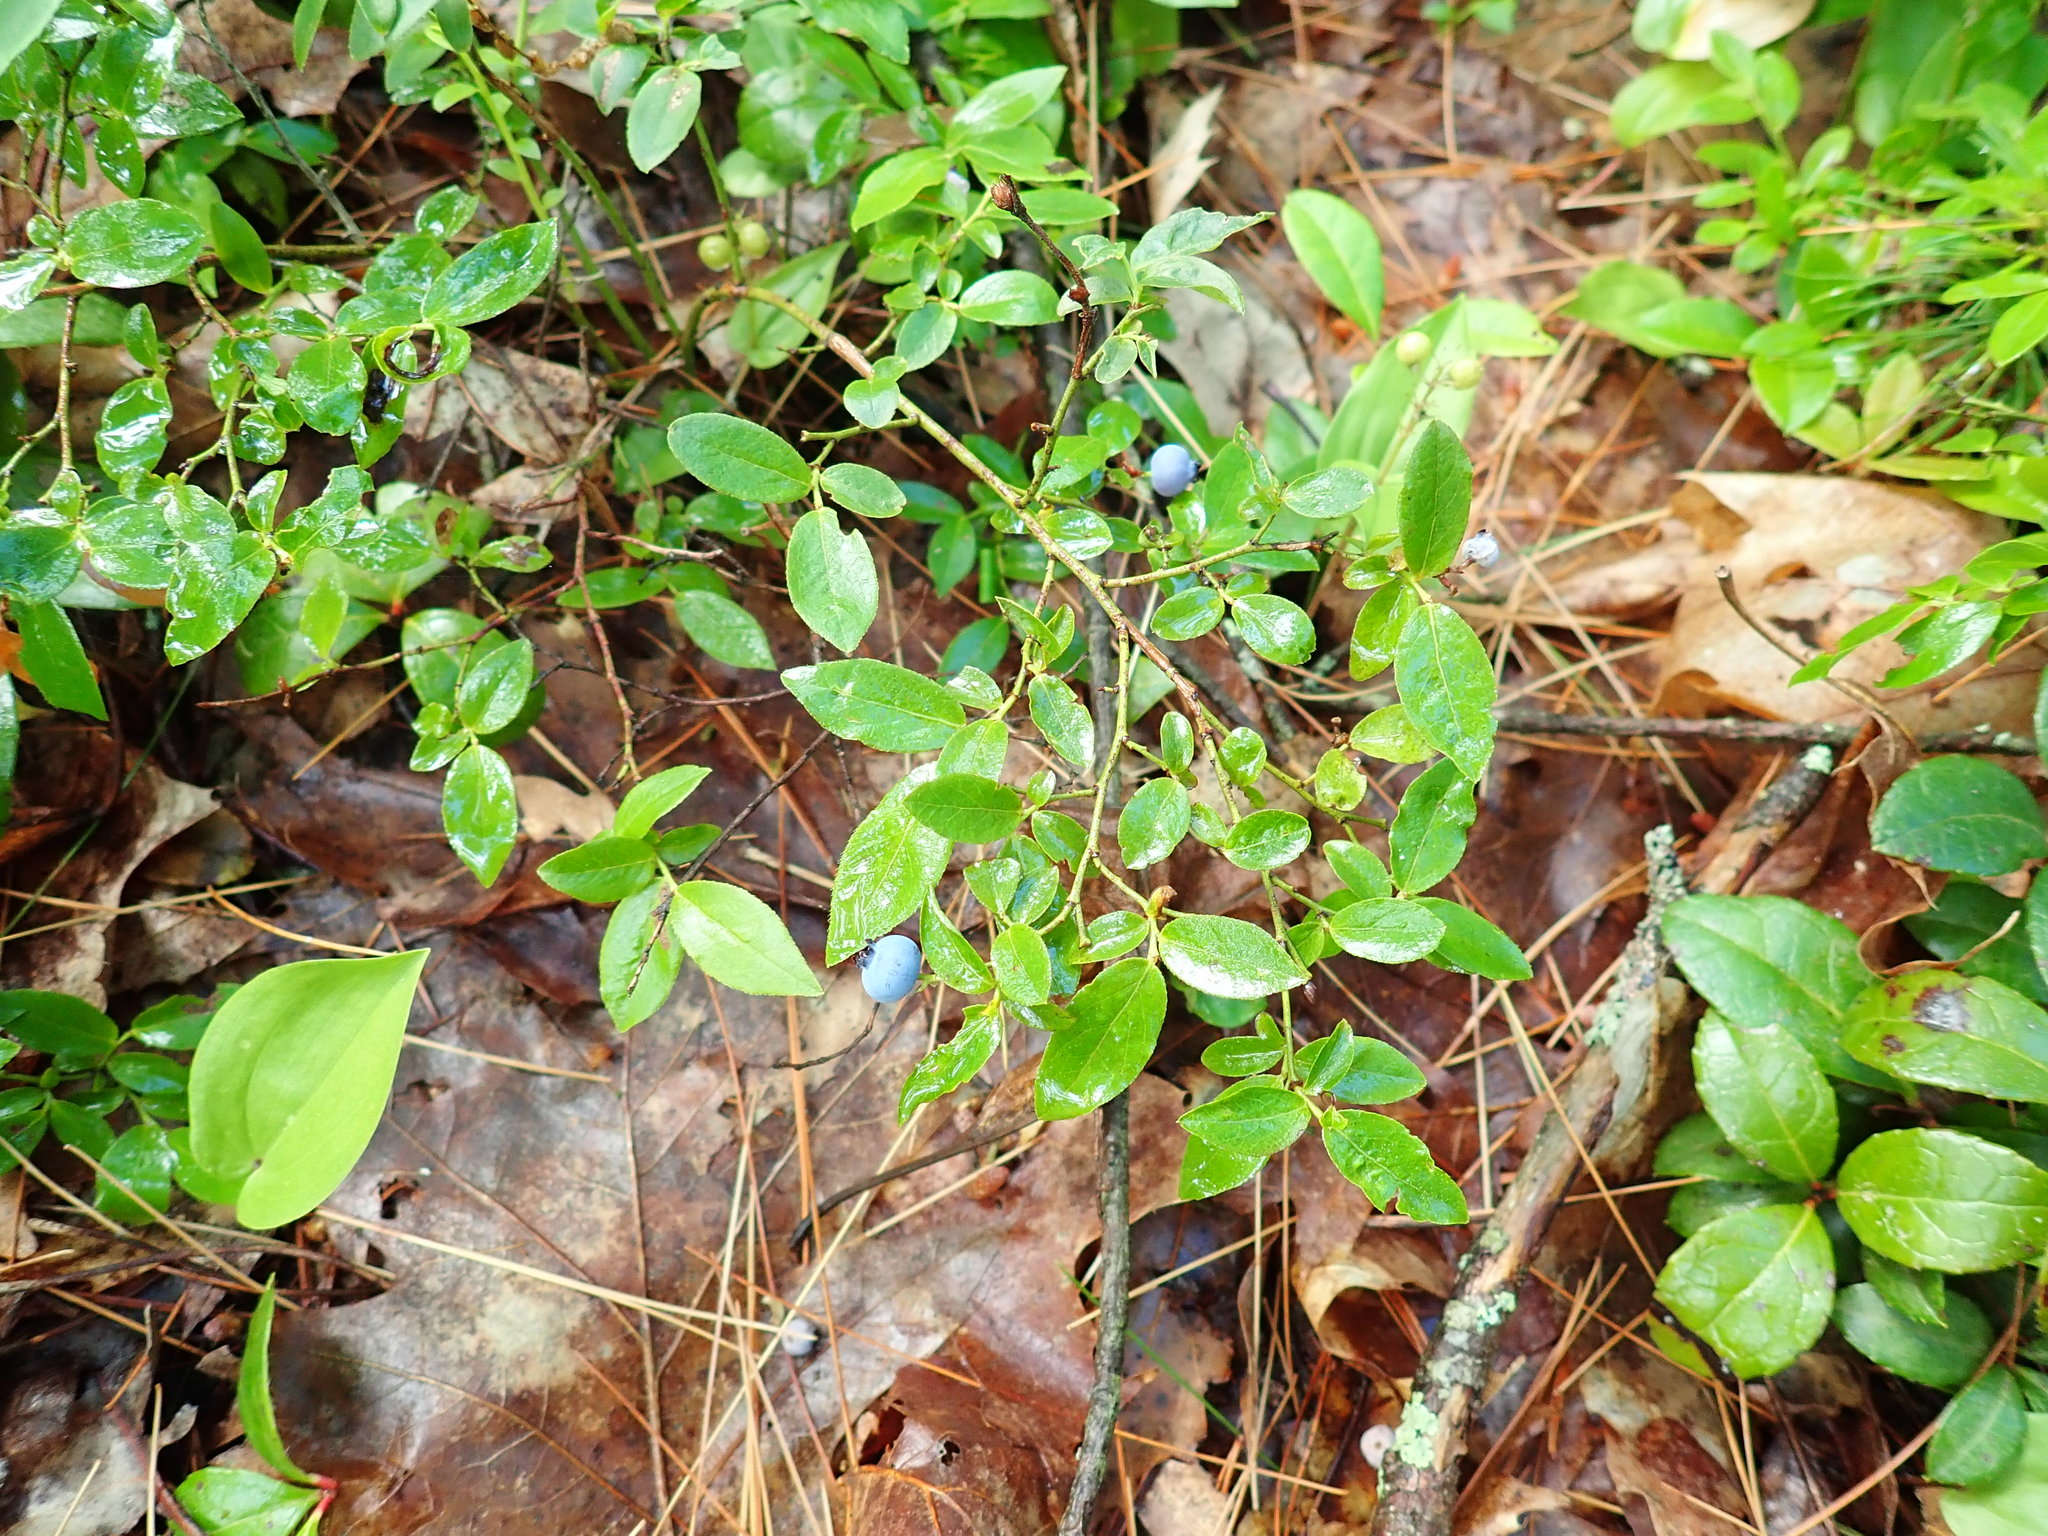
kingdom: Plantae
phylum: Tracheophyta
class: Magnoliopsida
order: Ericales
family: Ericaceae
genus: Vaccinium
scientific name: Vaccinium angustifolium
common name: Early lowbush blueberry
